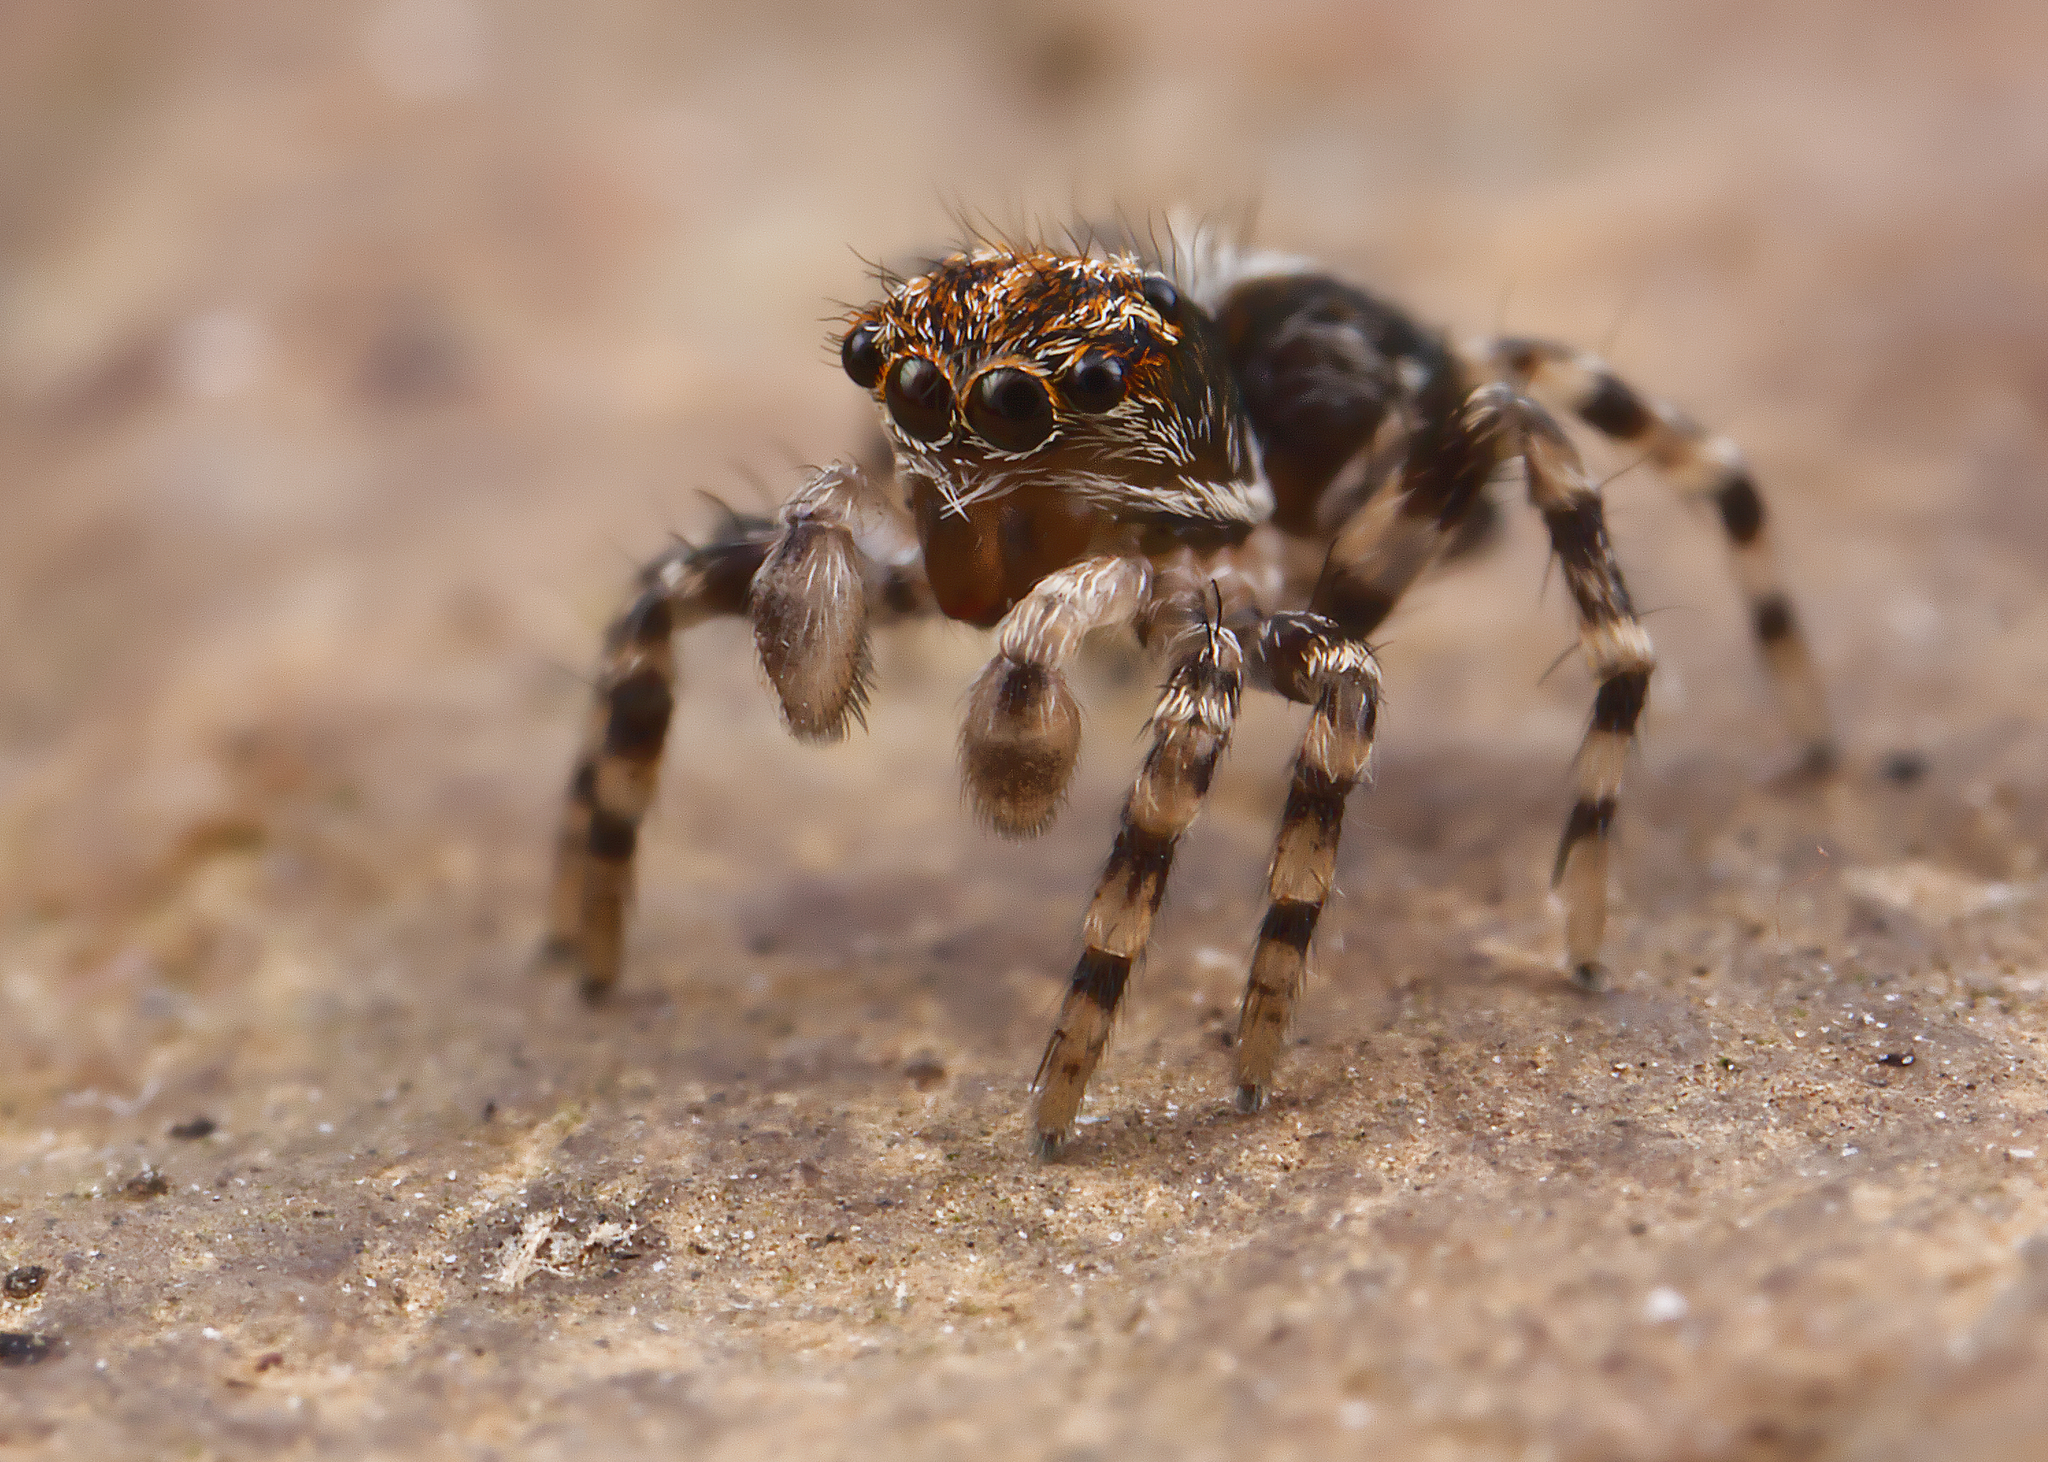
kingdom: Animalia
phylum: Arthropoda
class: Arachnida
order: Araneae
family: Salticidae
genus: Naphrys
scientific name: Naphrys pulex
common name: Flea jumping spider
